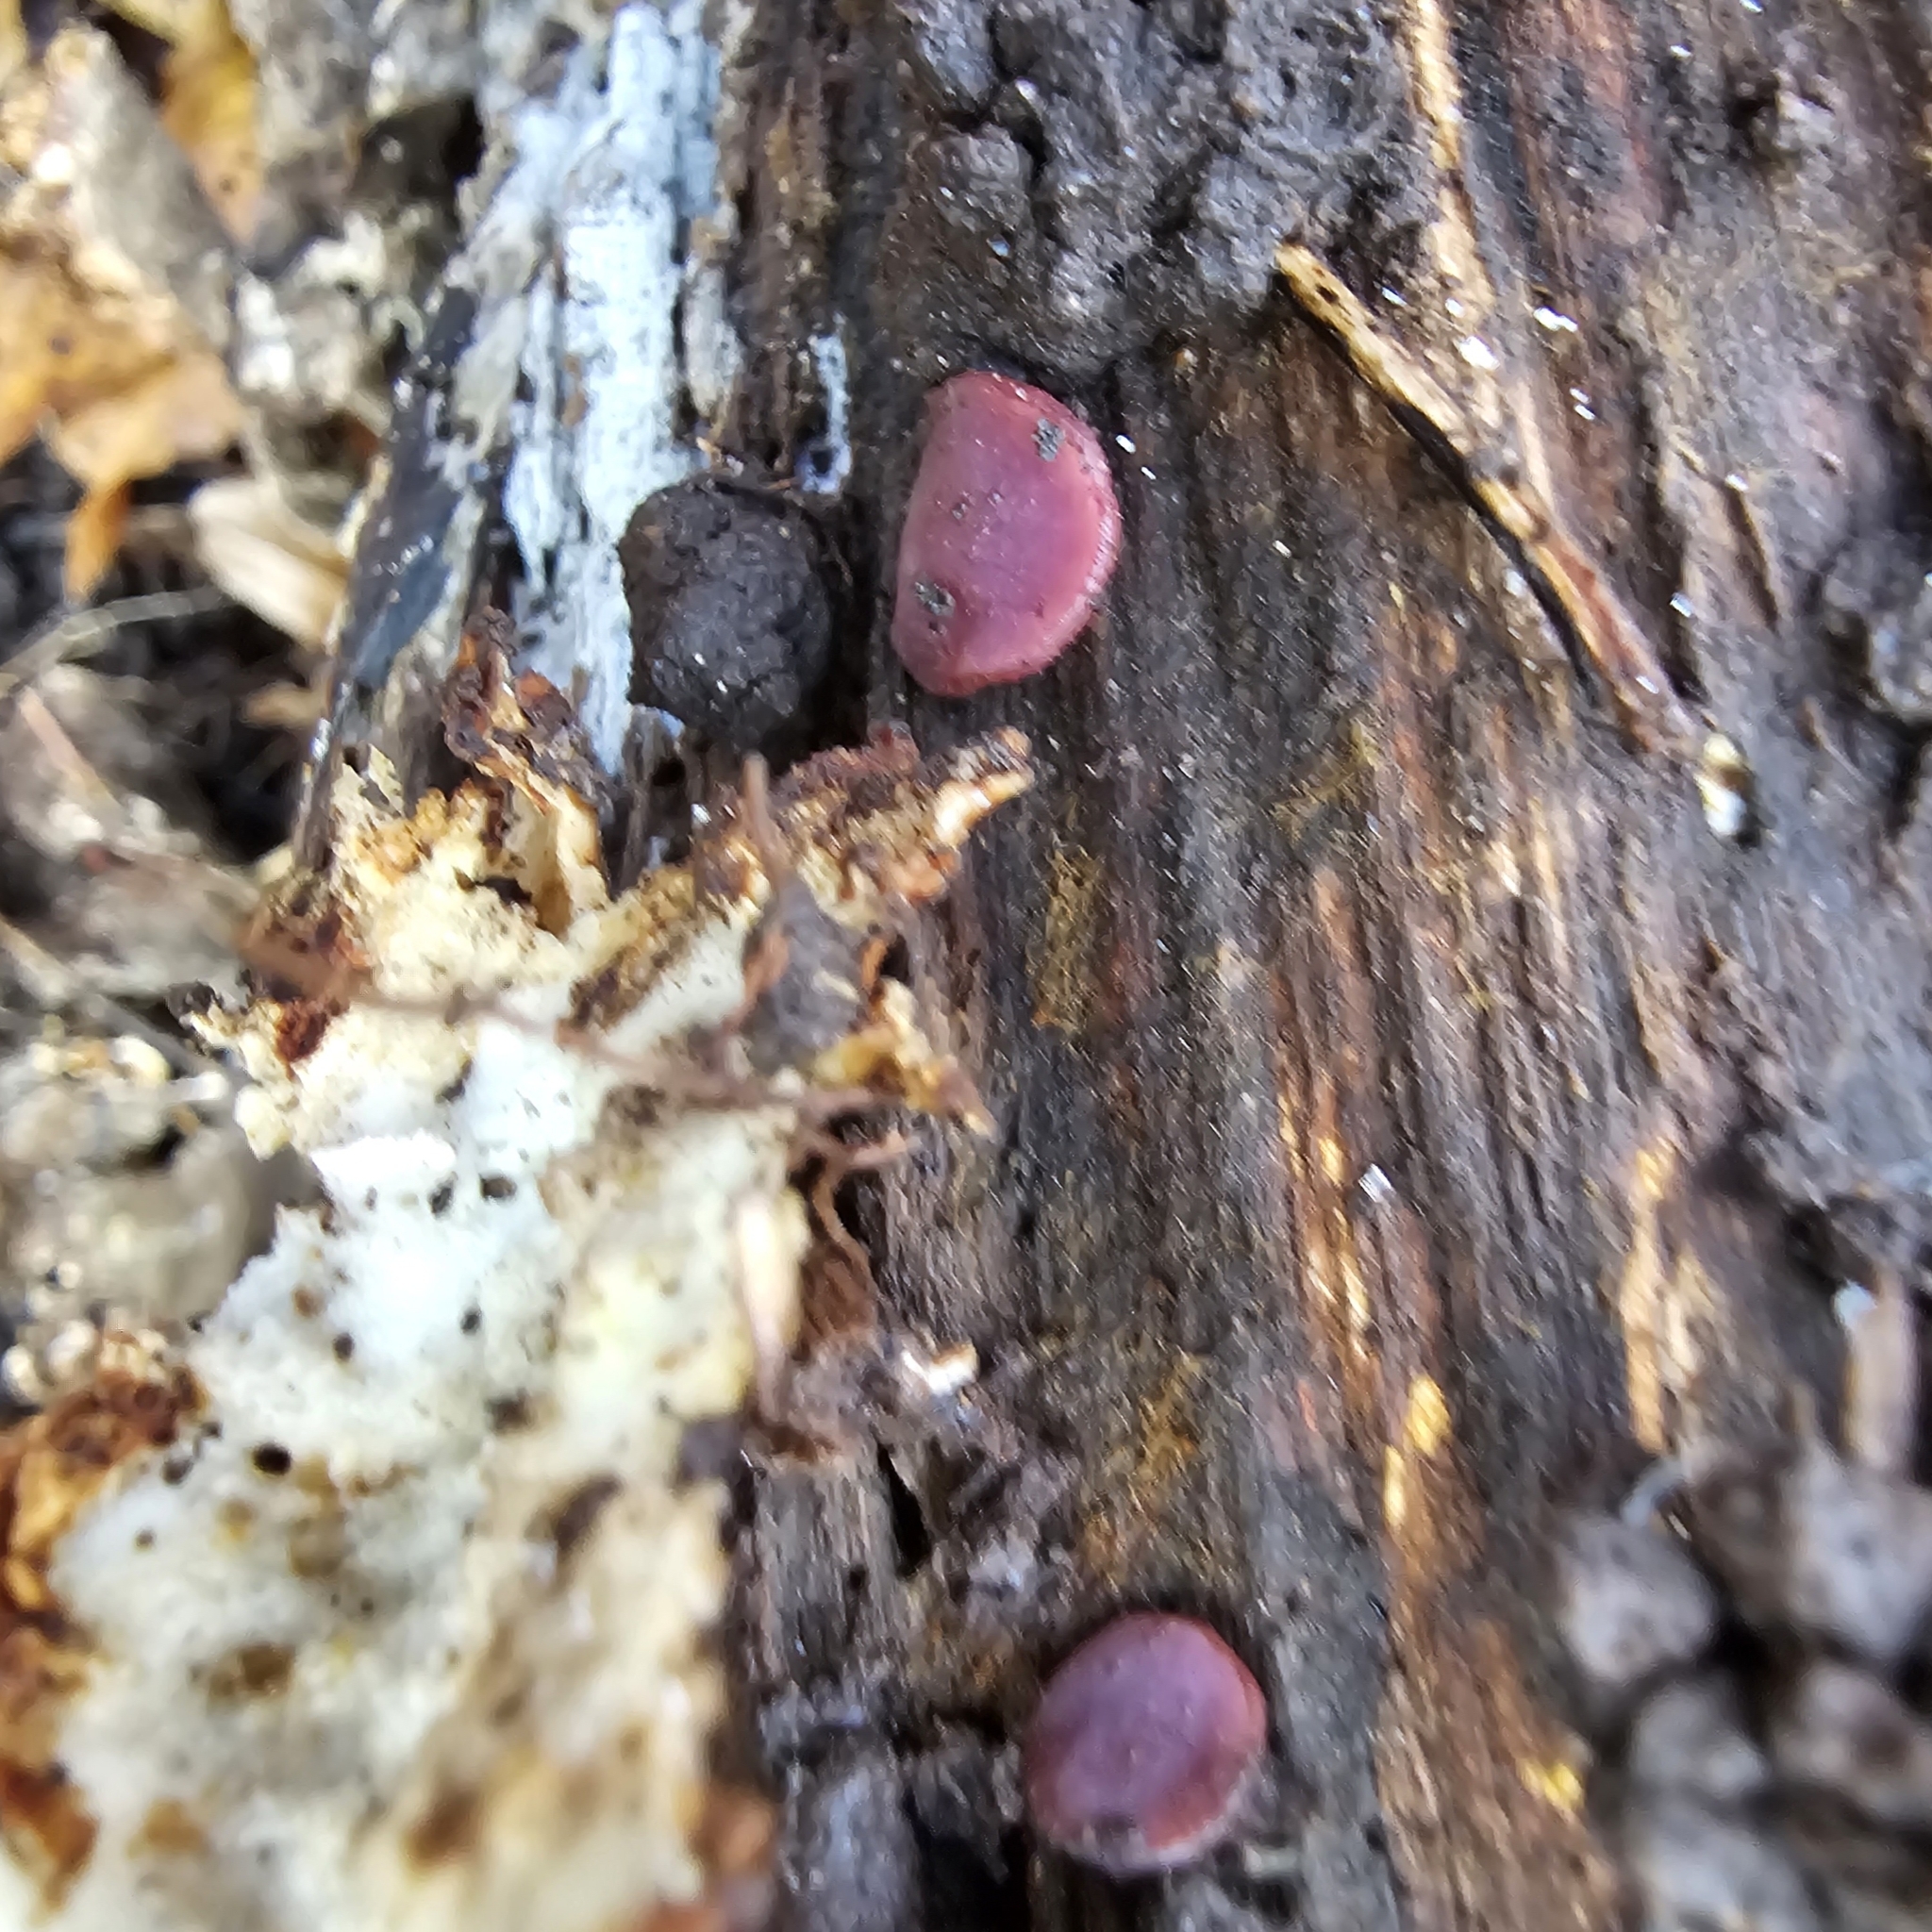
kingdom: Fungi
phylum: Ascomycota
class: Leotiomycetes
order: Helotiales
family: Gelatinodiscaceae
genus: Ascocoryne
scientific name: Ascocoryne sarcoides
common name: Purple jellydisc
